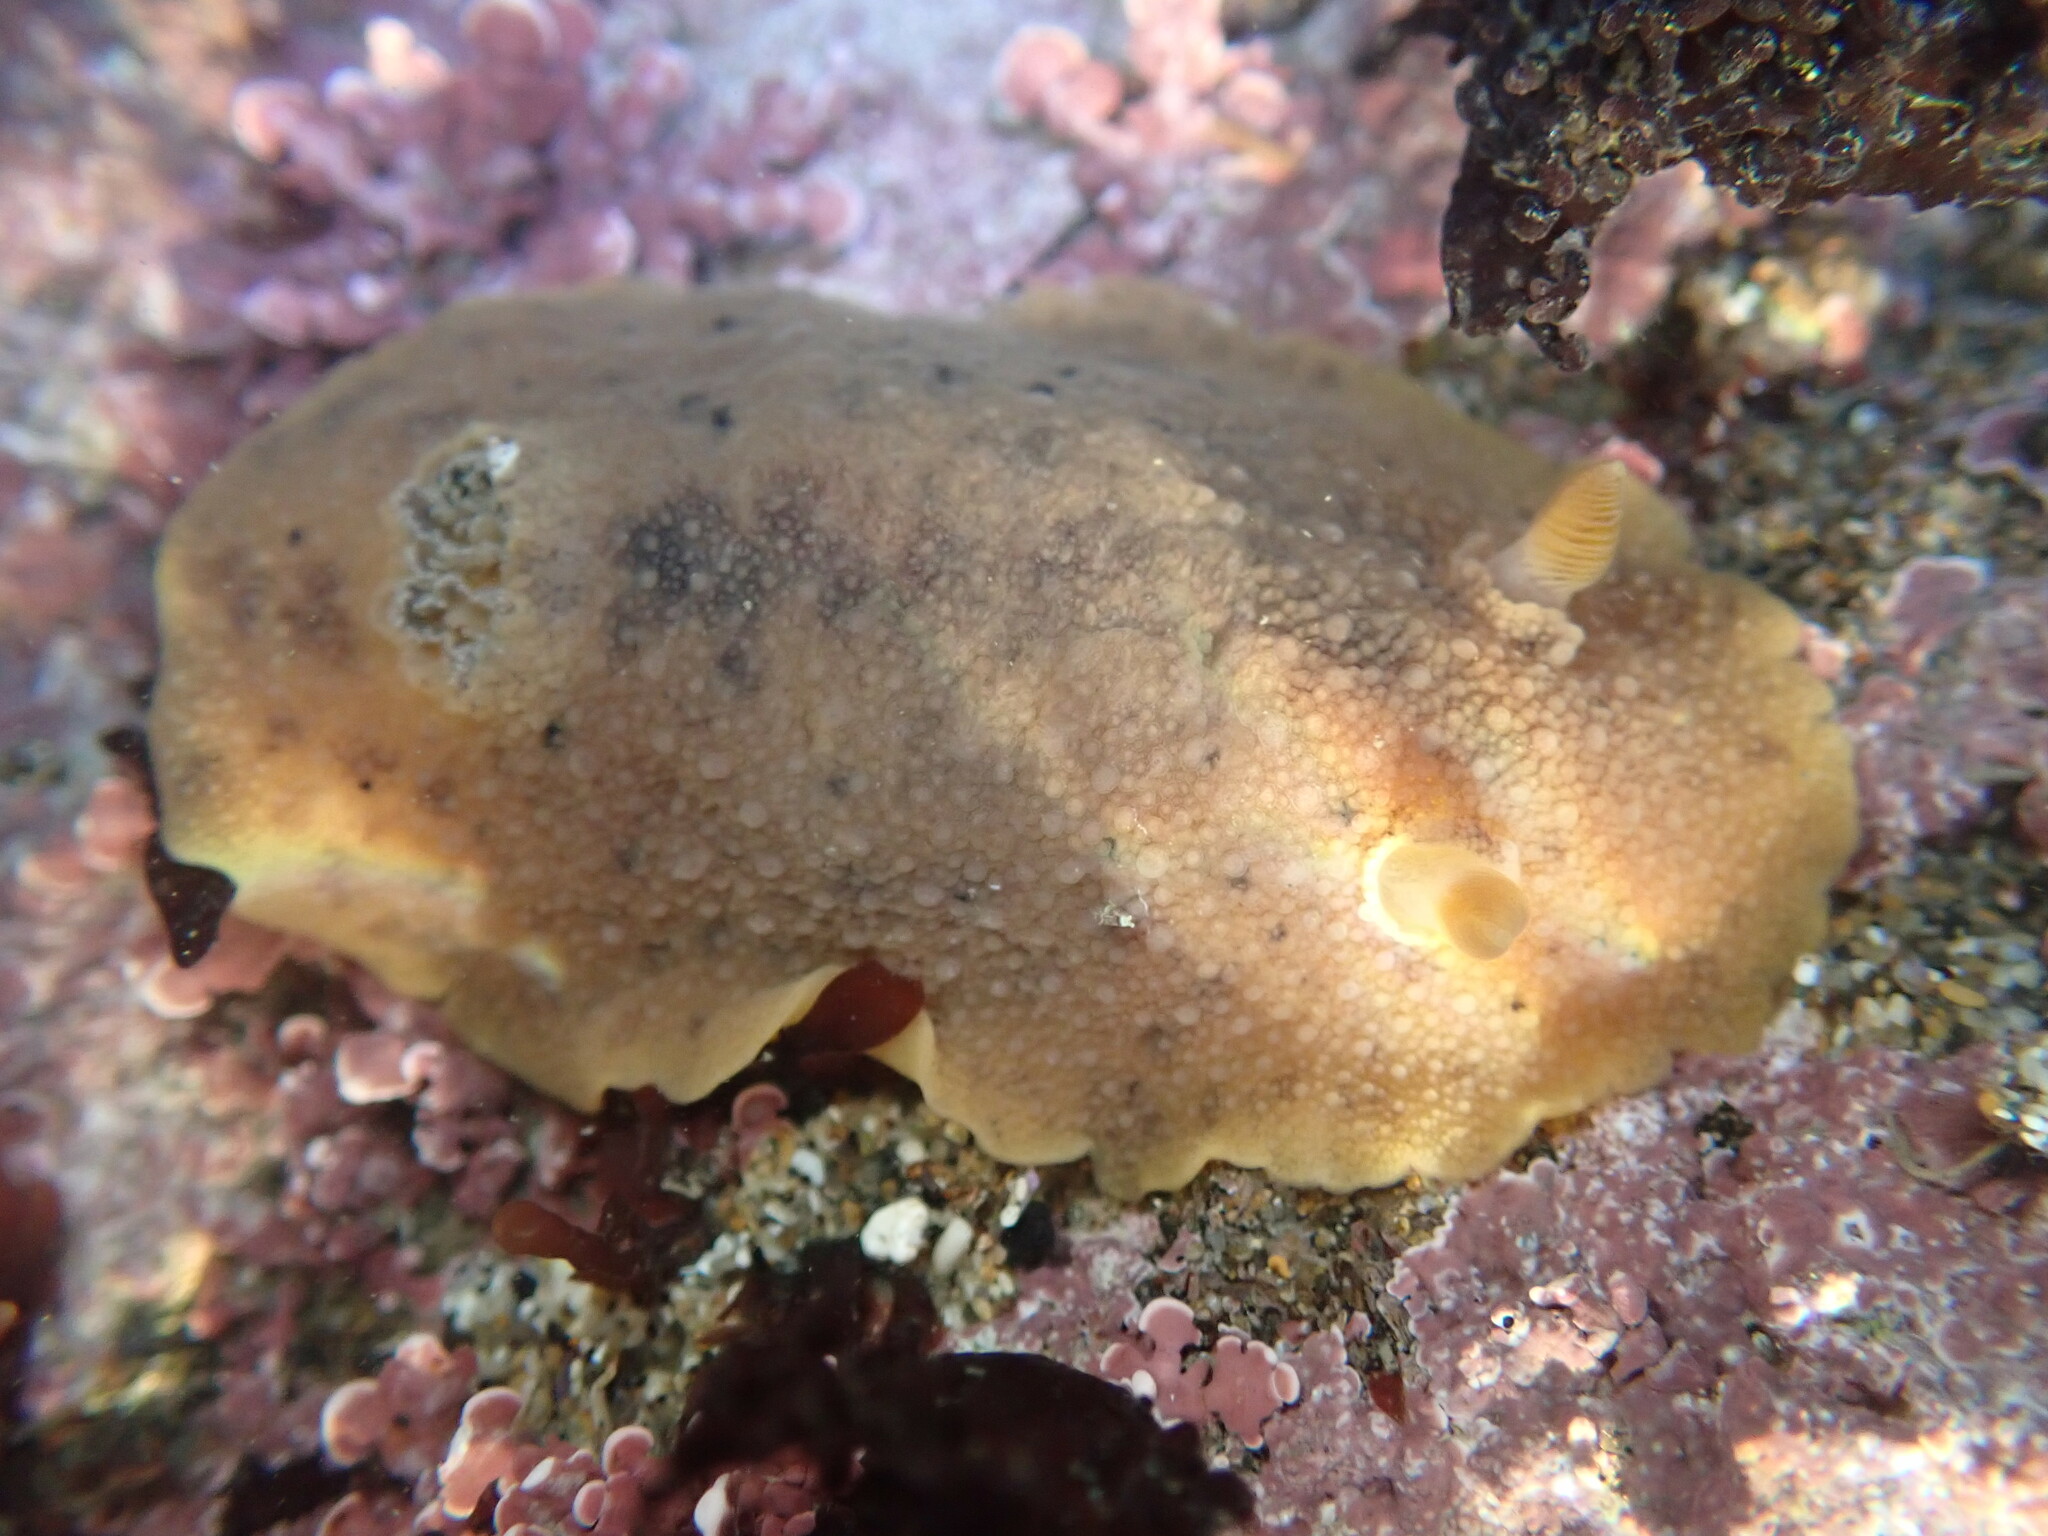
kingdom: Animalia
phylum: Mollusca
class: Gastropoda
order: Nudibranchia
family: Discodorididae
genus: Geitodoris
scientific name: Geitodoris heathi
